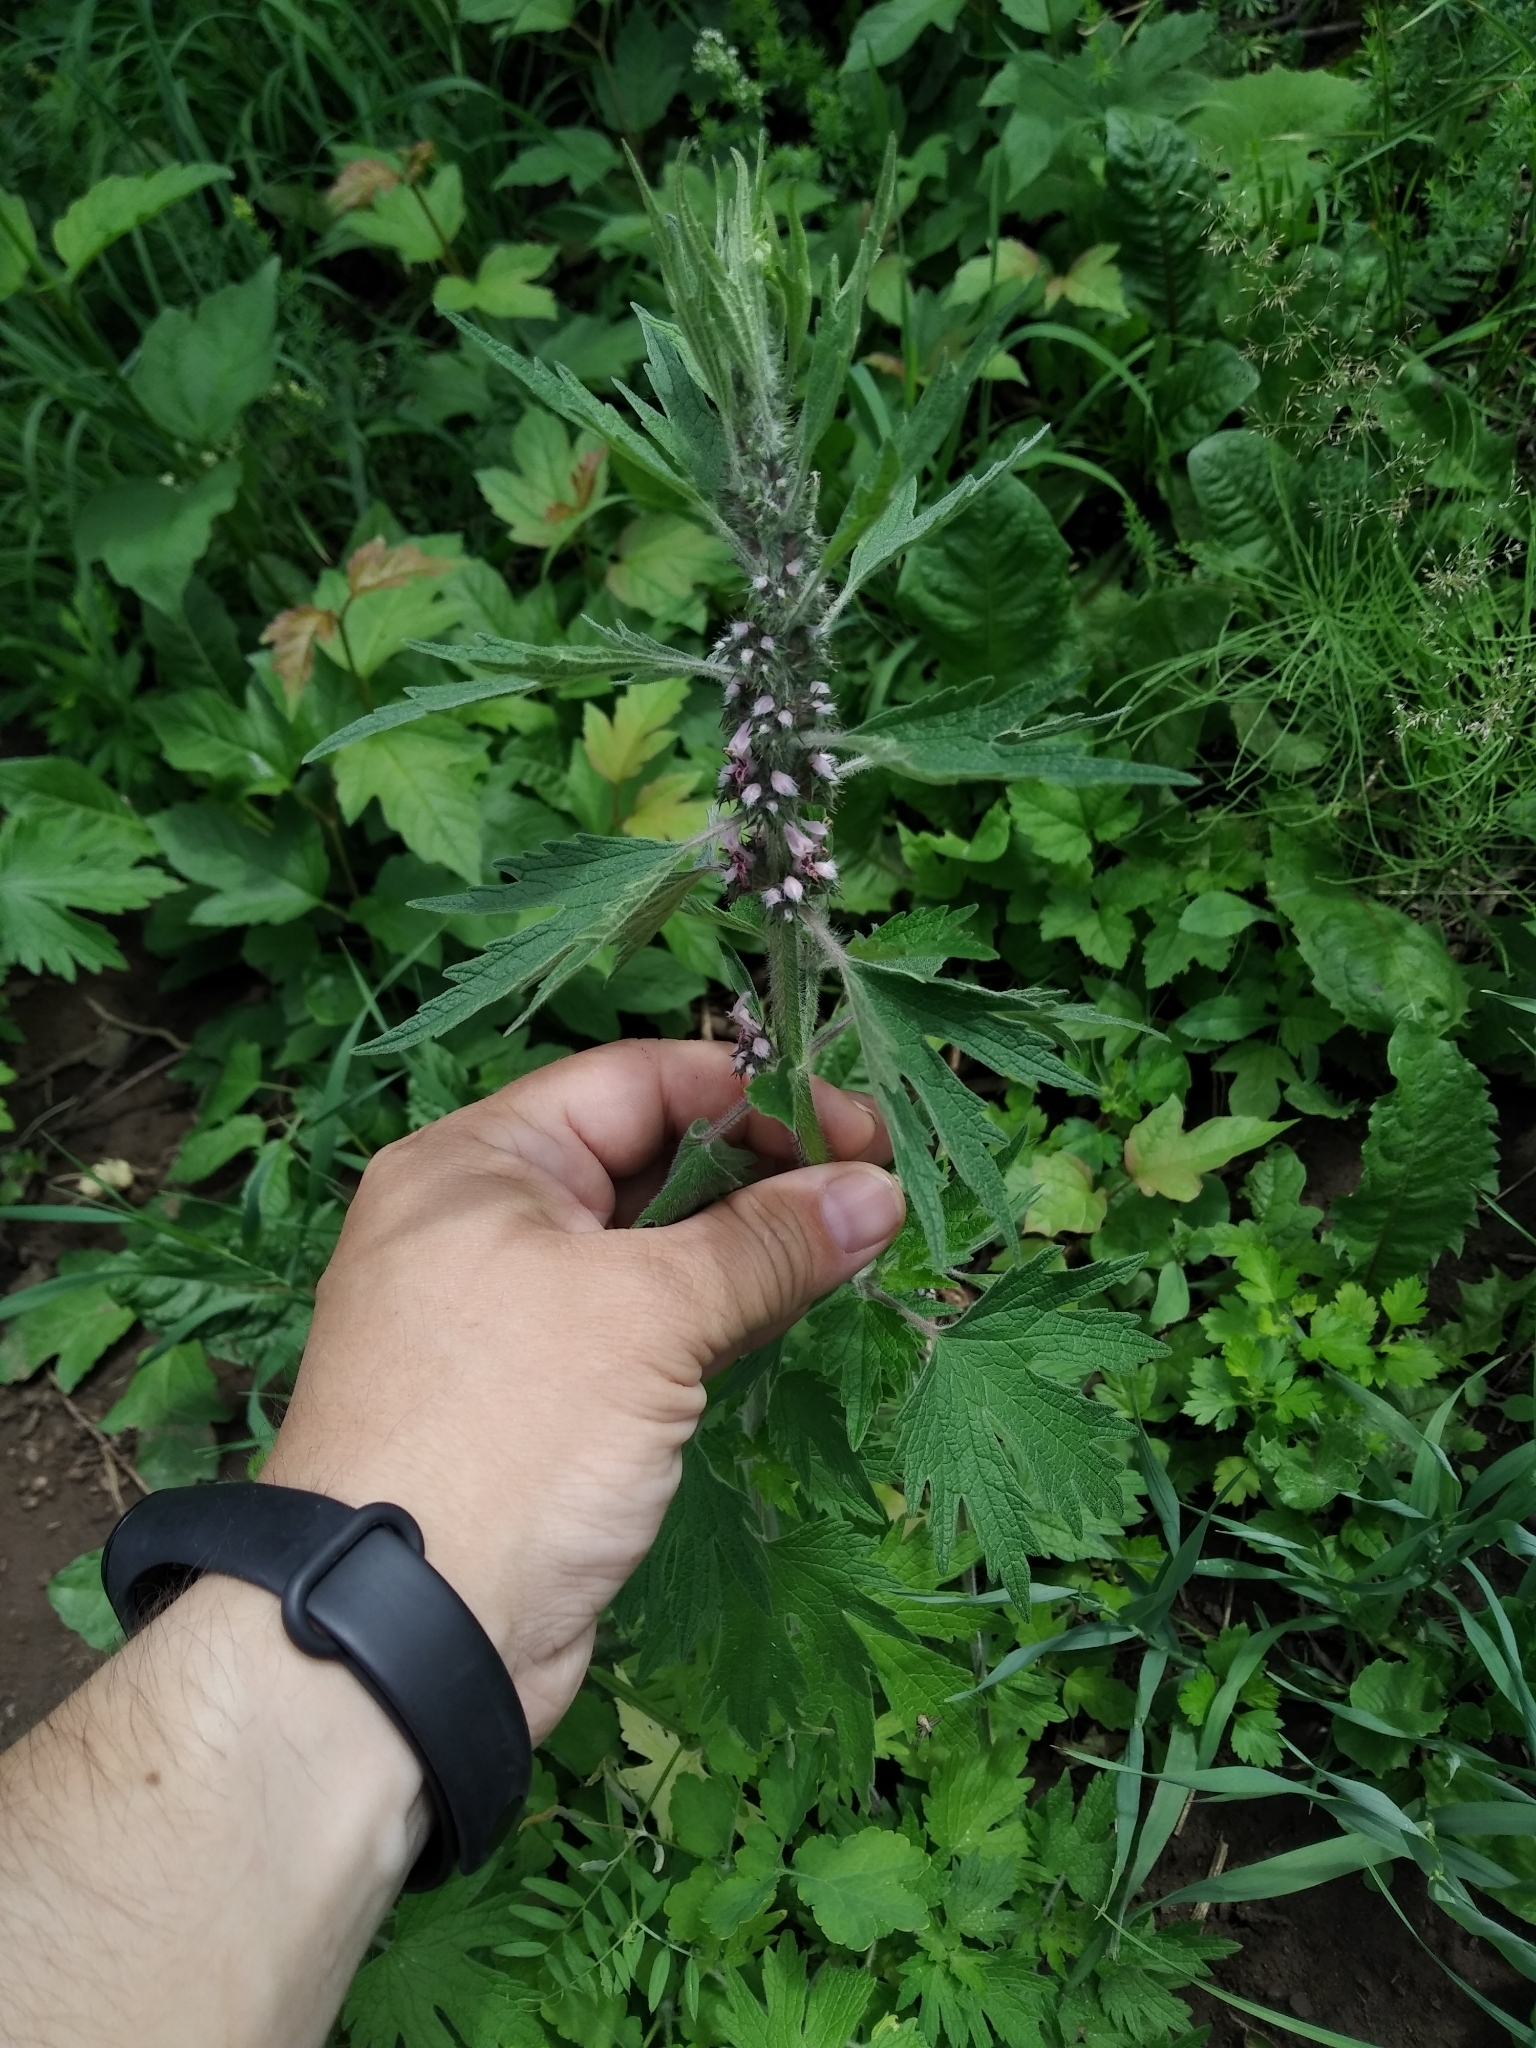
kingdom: Plantae
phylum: Tracheophyta
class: Magnoliopsida
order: Lamiales
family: Lamiaceae
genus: Leonurus
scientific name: Leonurus quinquelobatus
